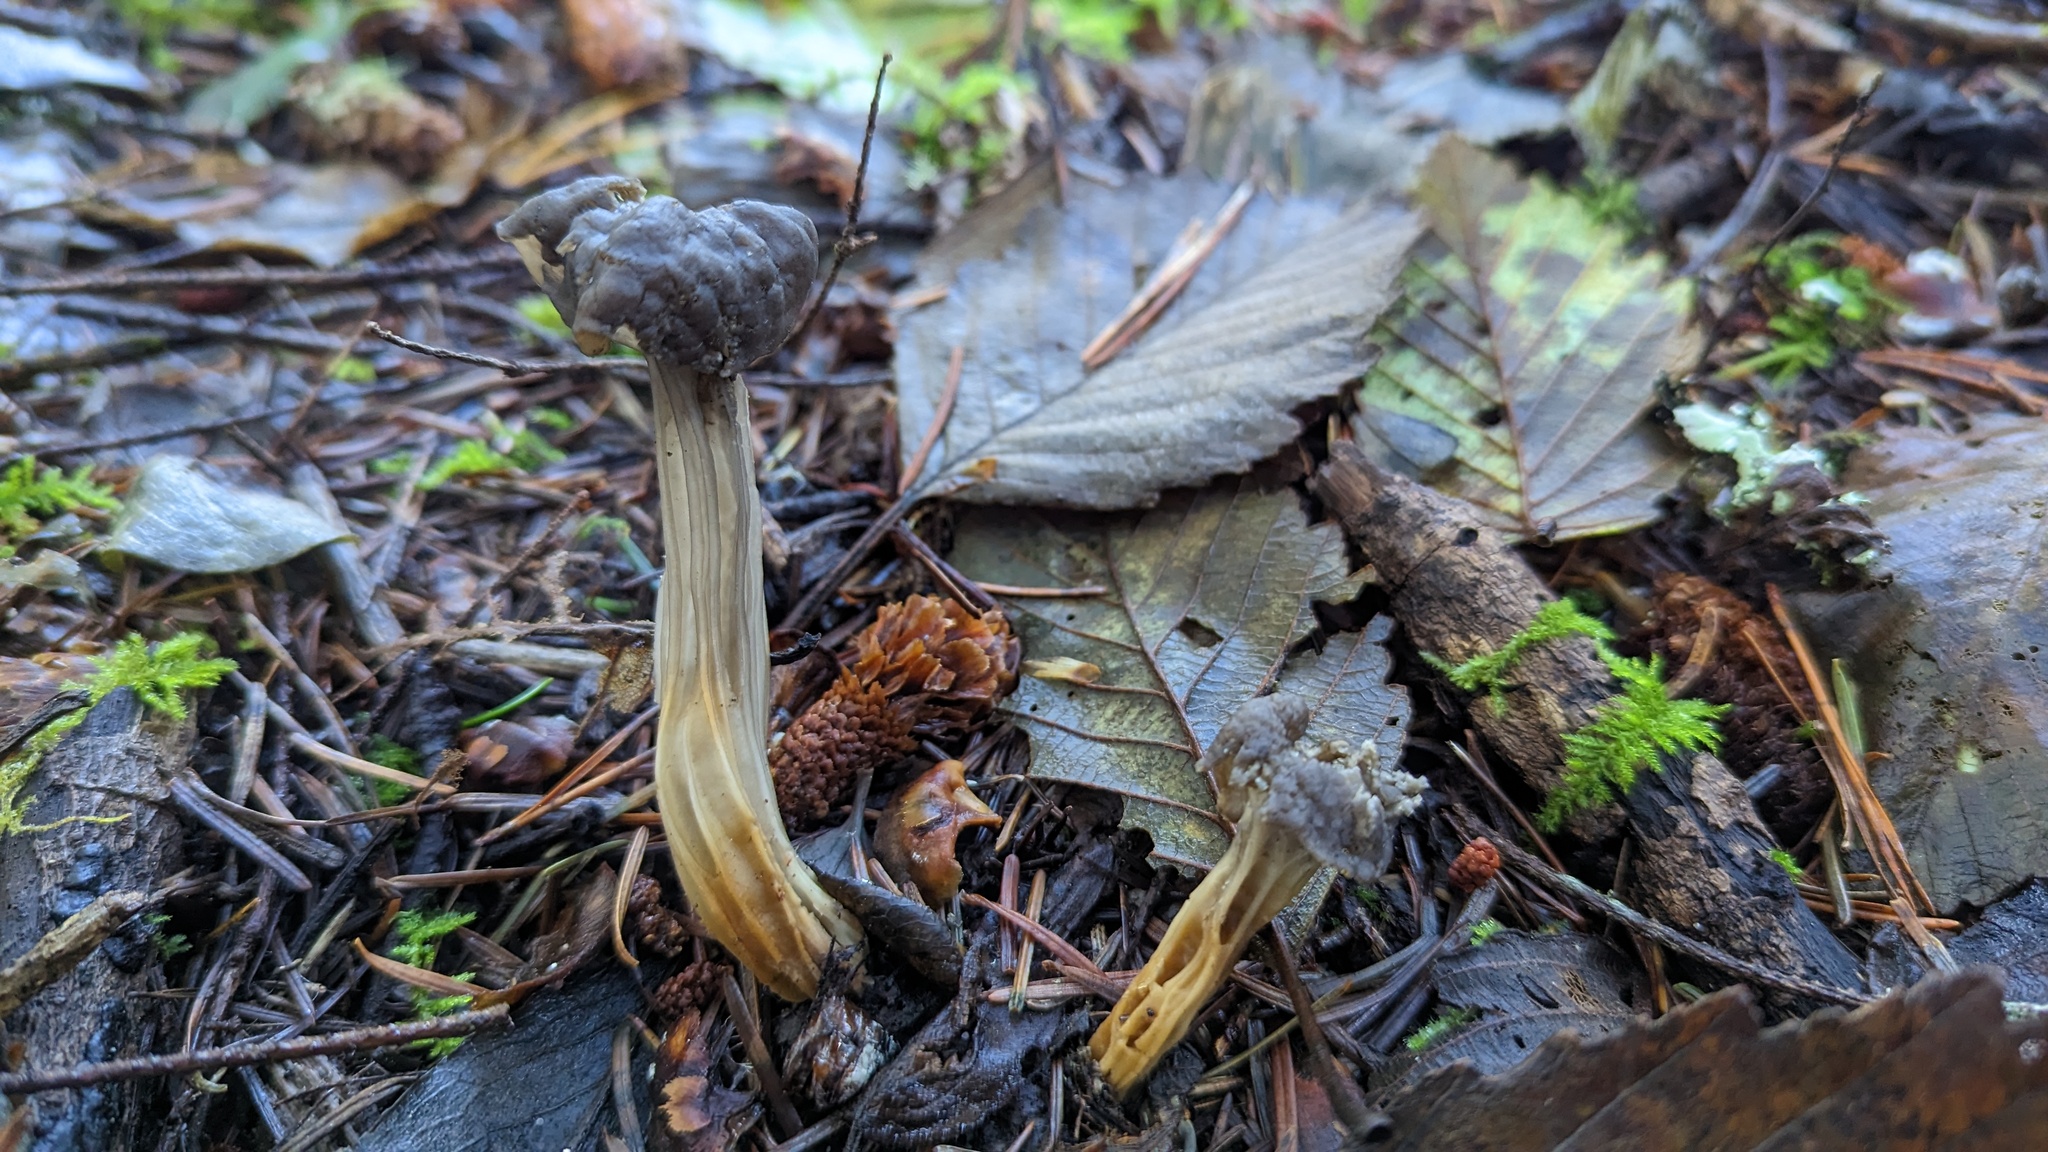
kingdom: Fungi
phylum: Ascomycota
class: Pezizomycetes
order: Pezizales
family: Helvellaceae
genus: Helvella
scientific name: Helvella vespertina
